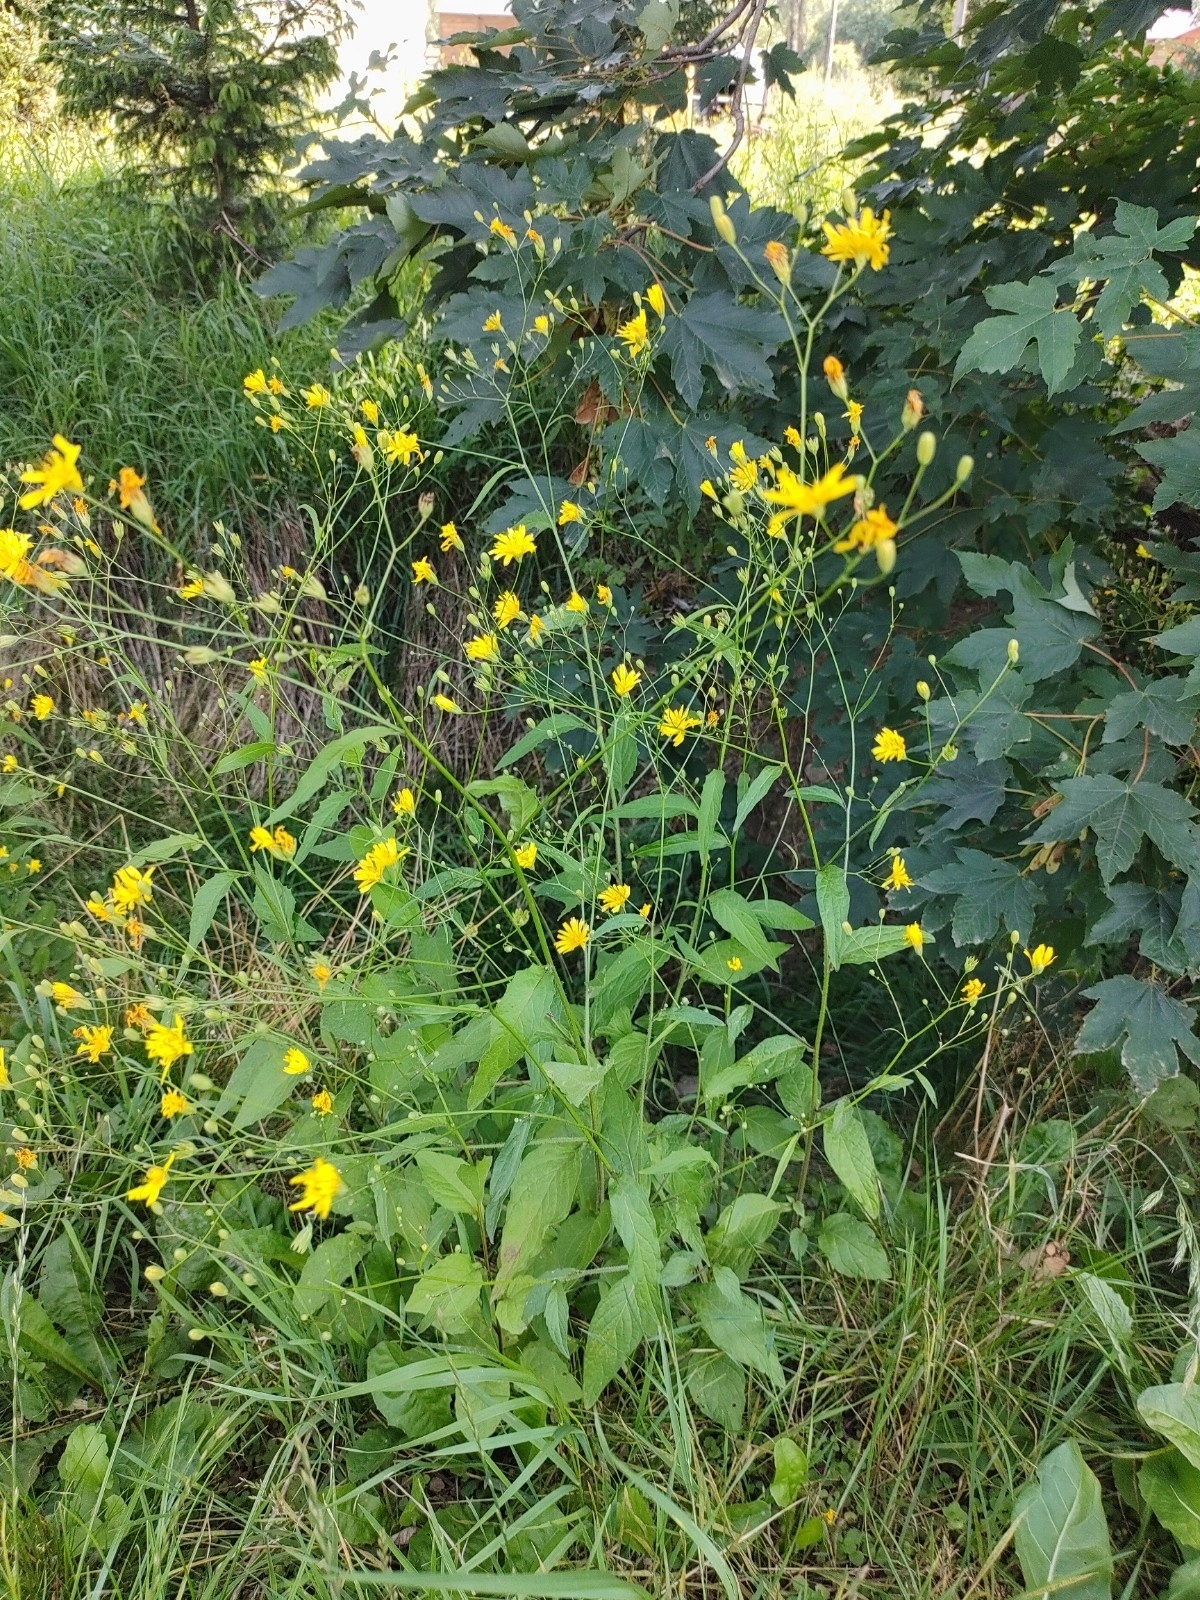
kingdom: Plantae
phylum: Tracheophyta
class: Magnoliopsida
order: Asterales
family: Asteraceae
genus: Lapsana
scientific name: Lapsana communis
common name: Nipplewort
